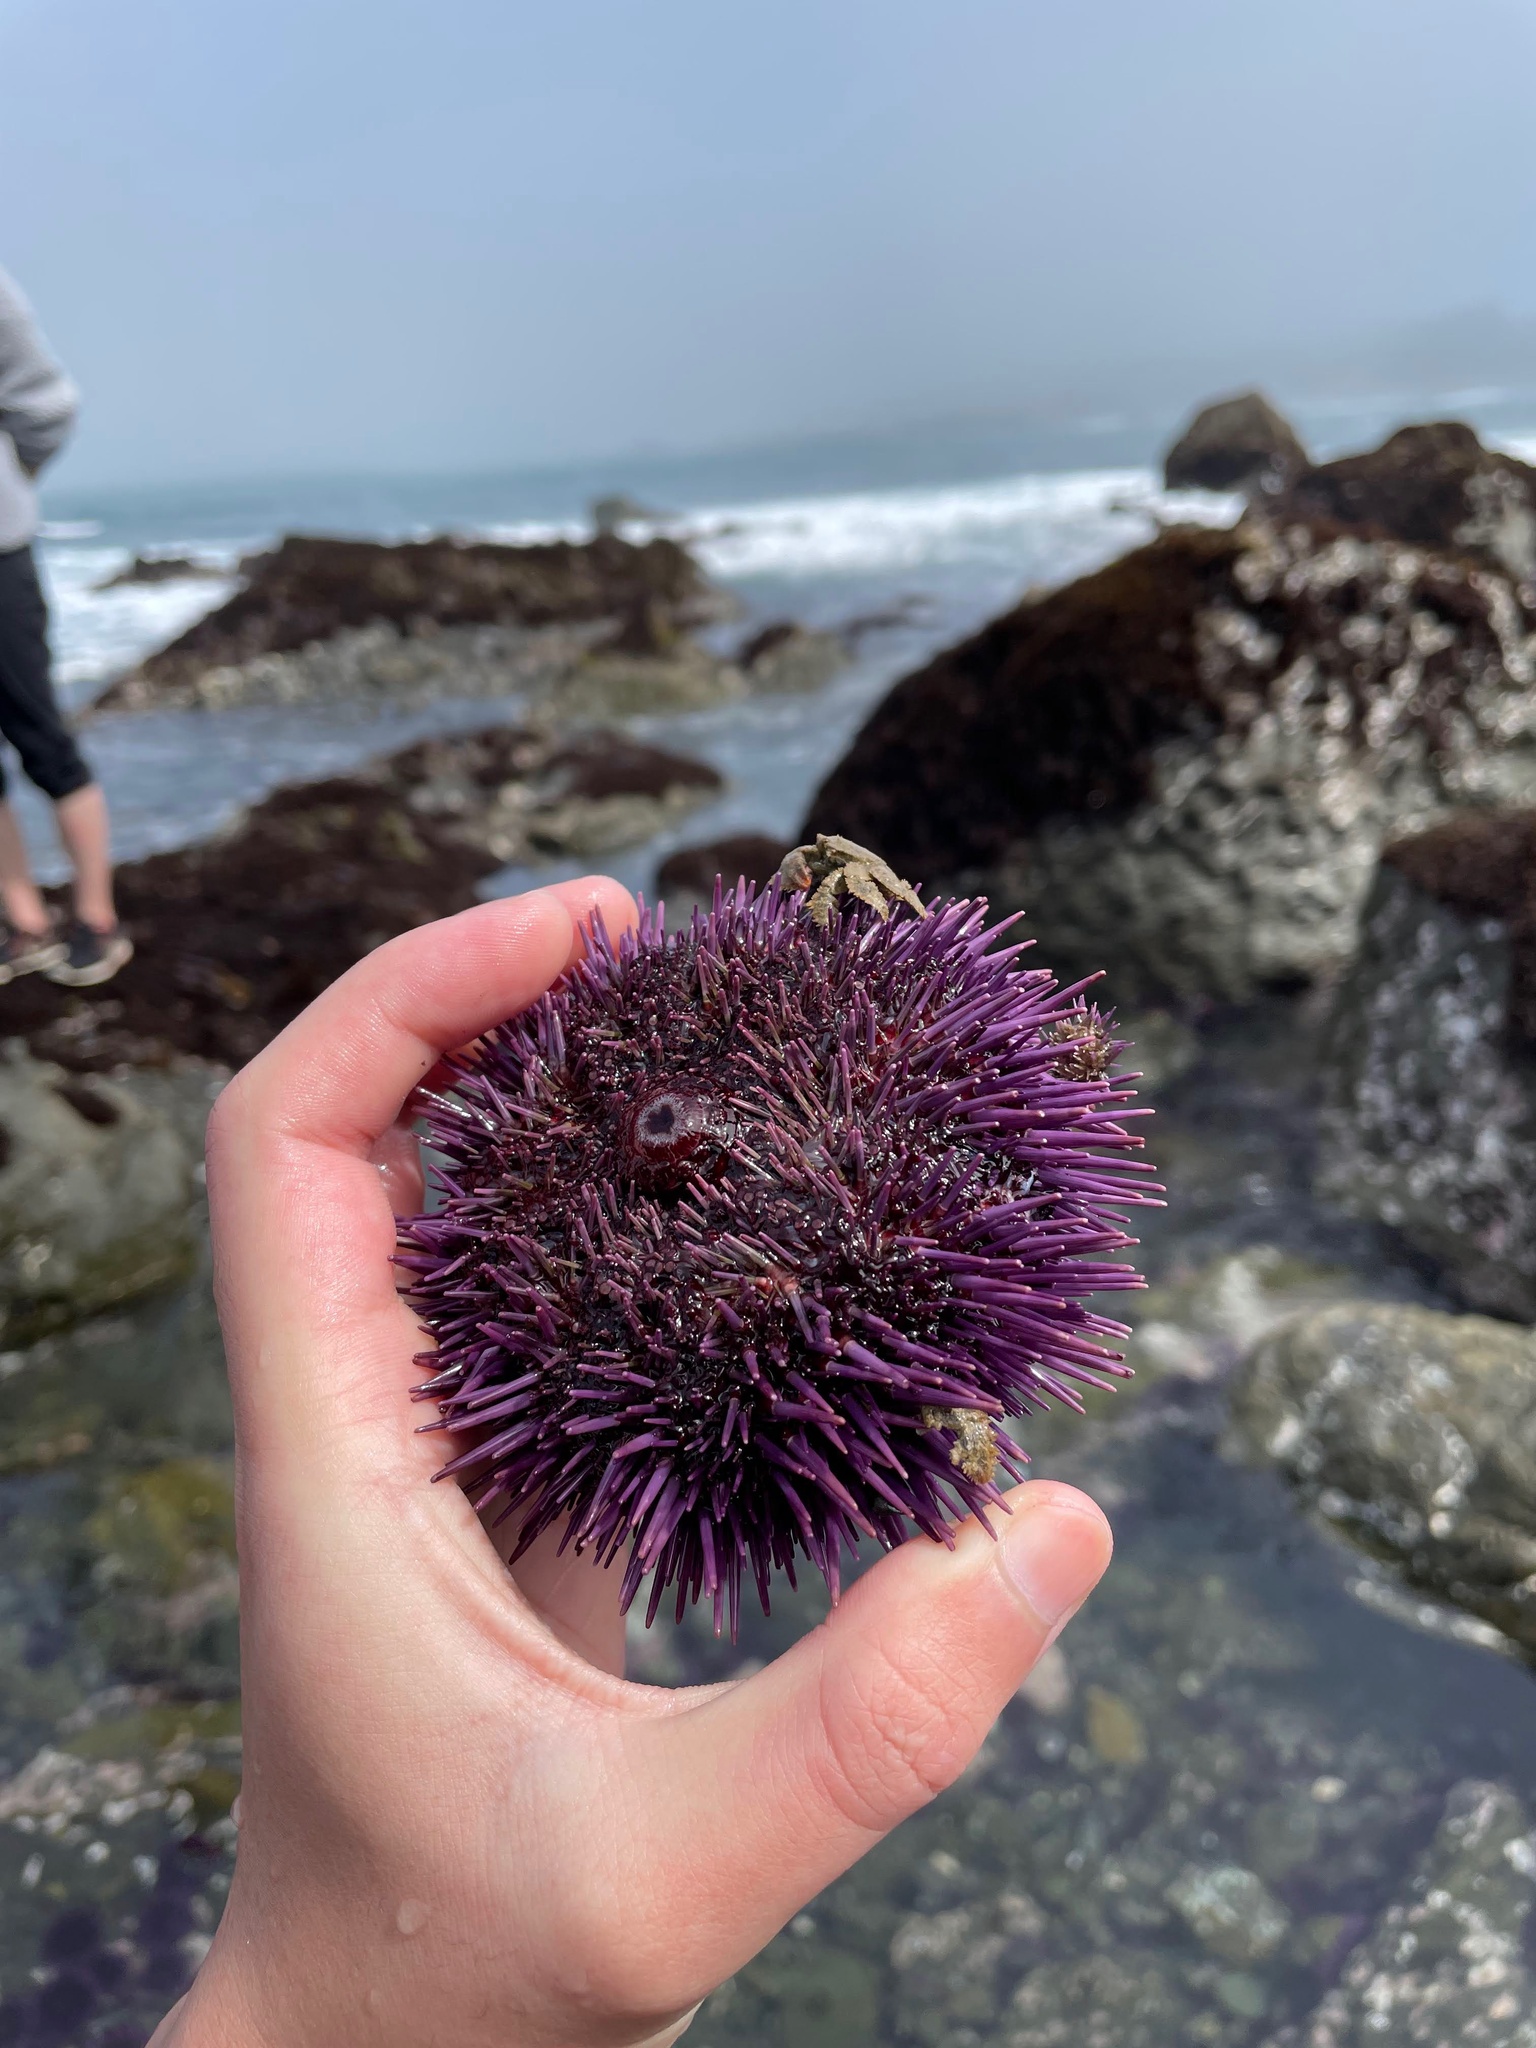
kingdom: Animalia
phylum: Echinodermata
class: Echinoidea
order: Camarodonta
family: Strongylocentrotidae
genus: Strongylocentrotus
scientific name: Strongylocentrotus purpuratus
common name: Purple sea urchin
